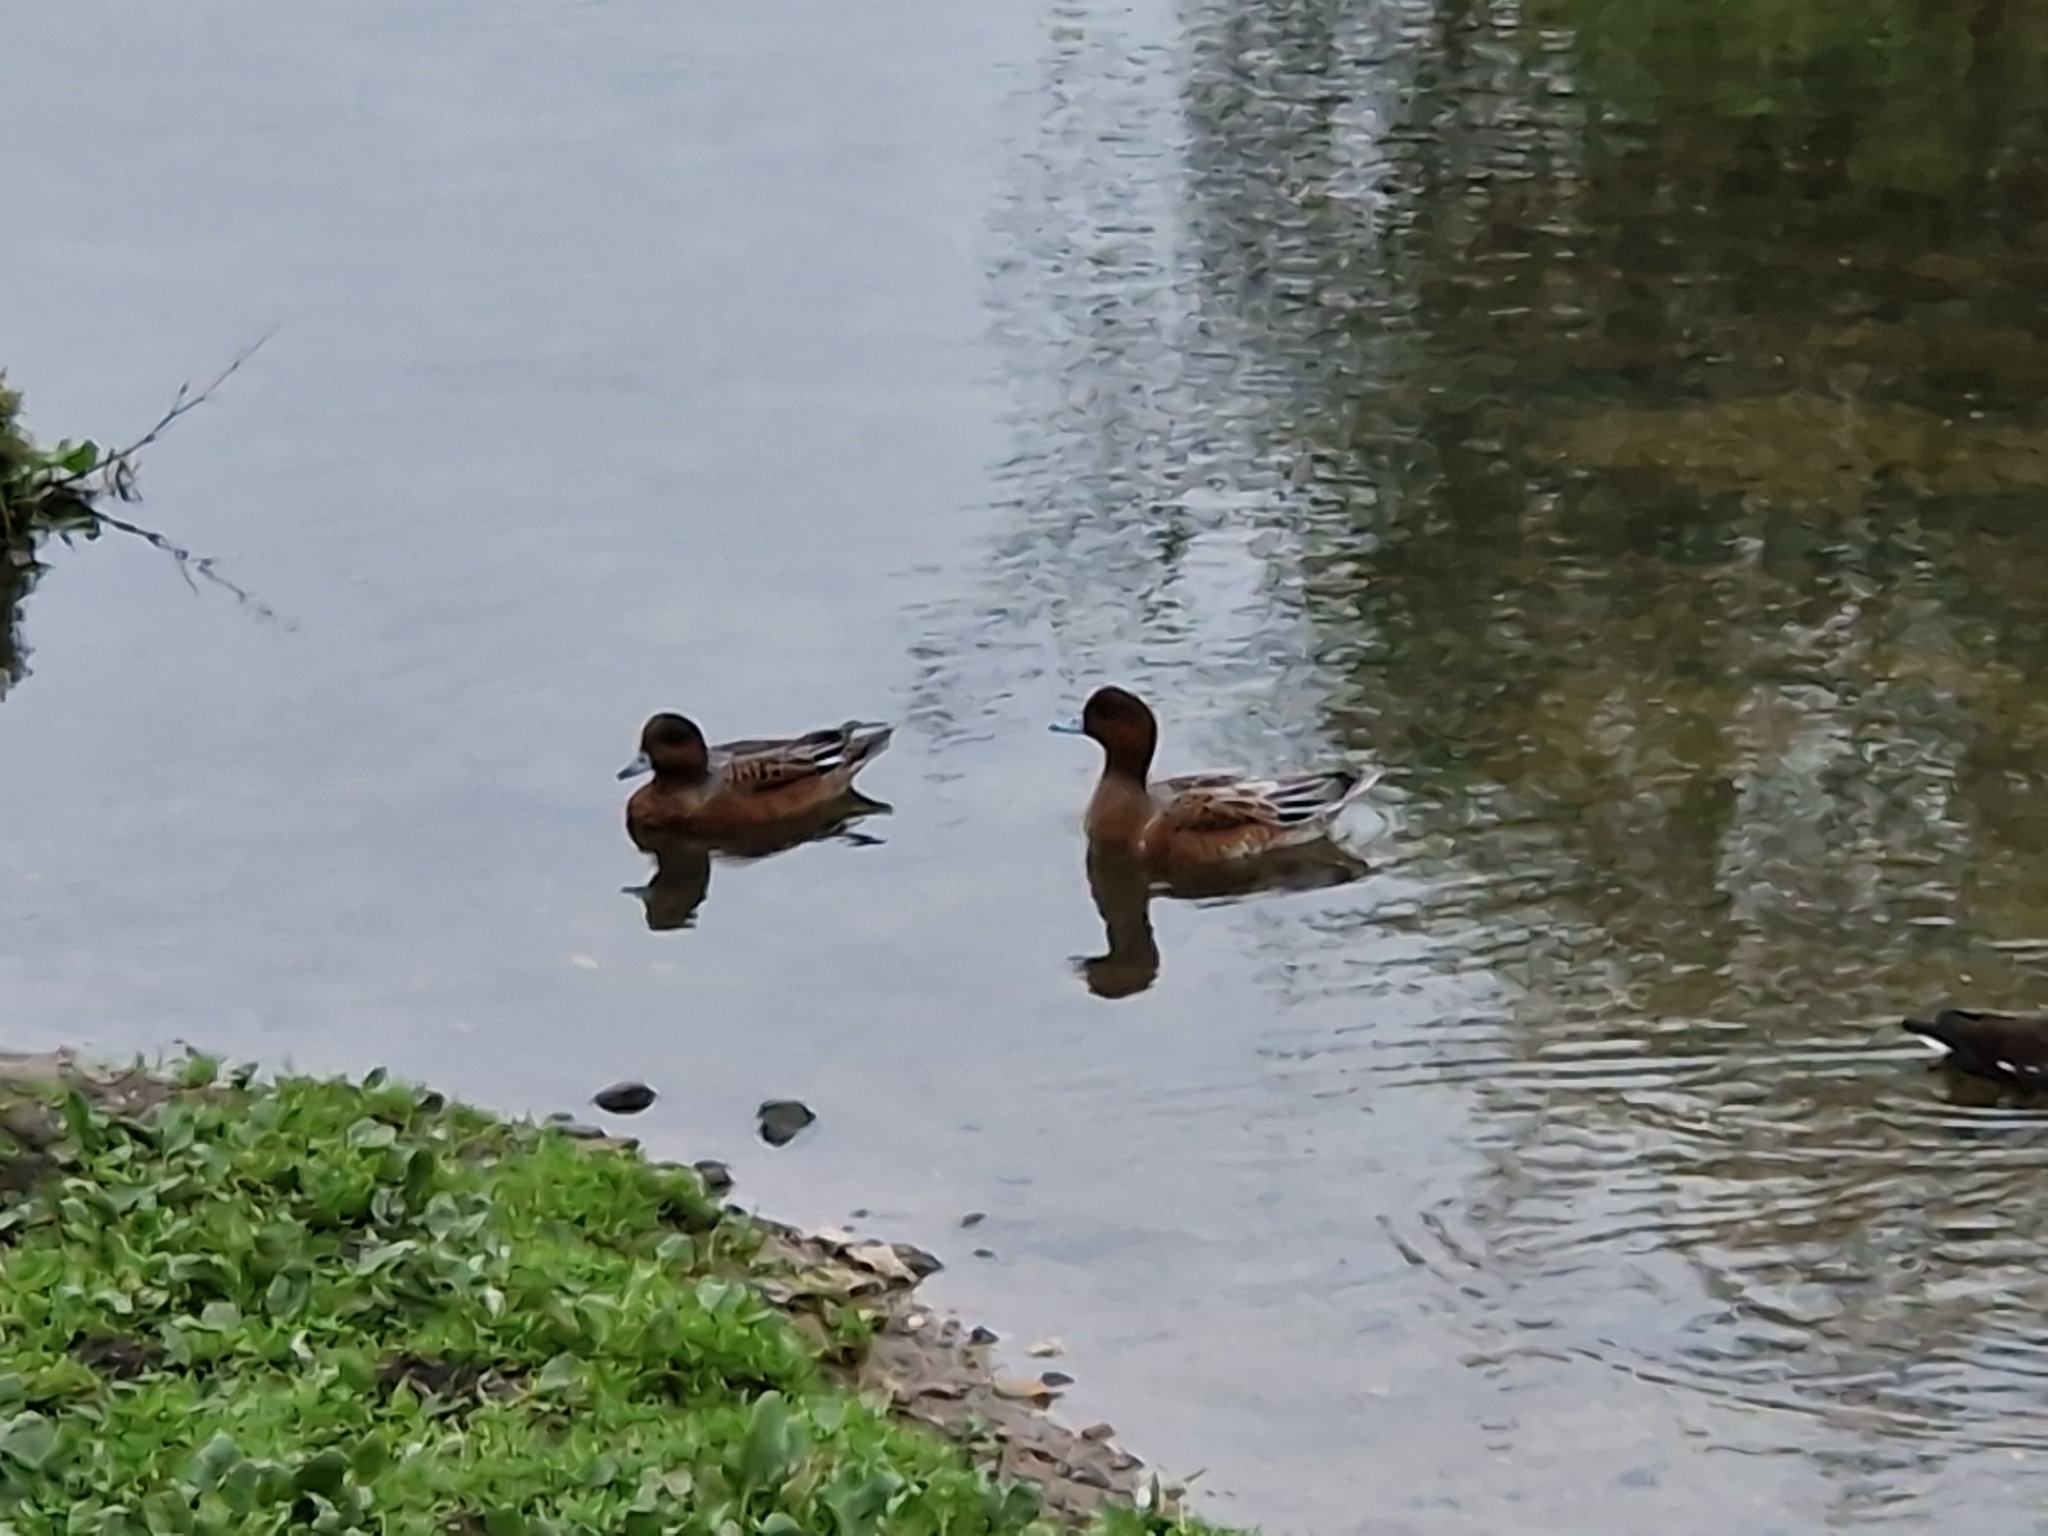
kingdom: Animalia
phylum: Chordata
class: Aves
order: Anseriformes
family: Anatidae
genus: Mareca
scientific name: Mareca penelope
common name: Eurasian wigeon
